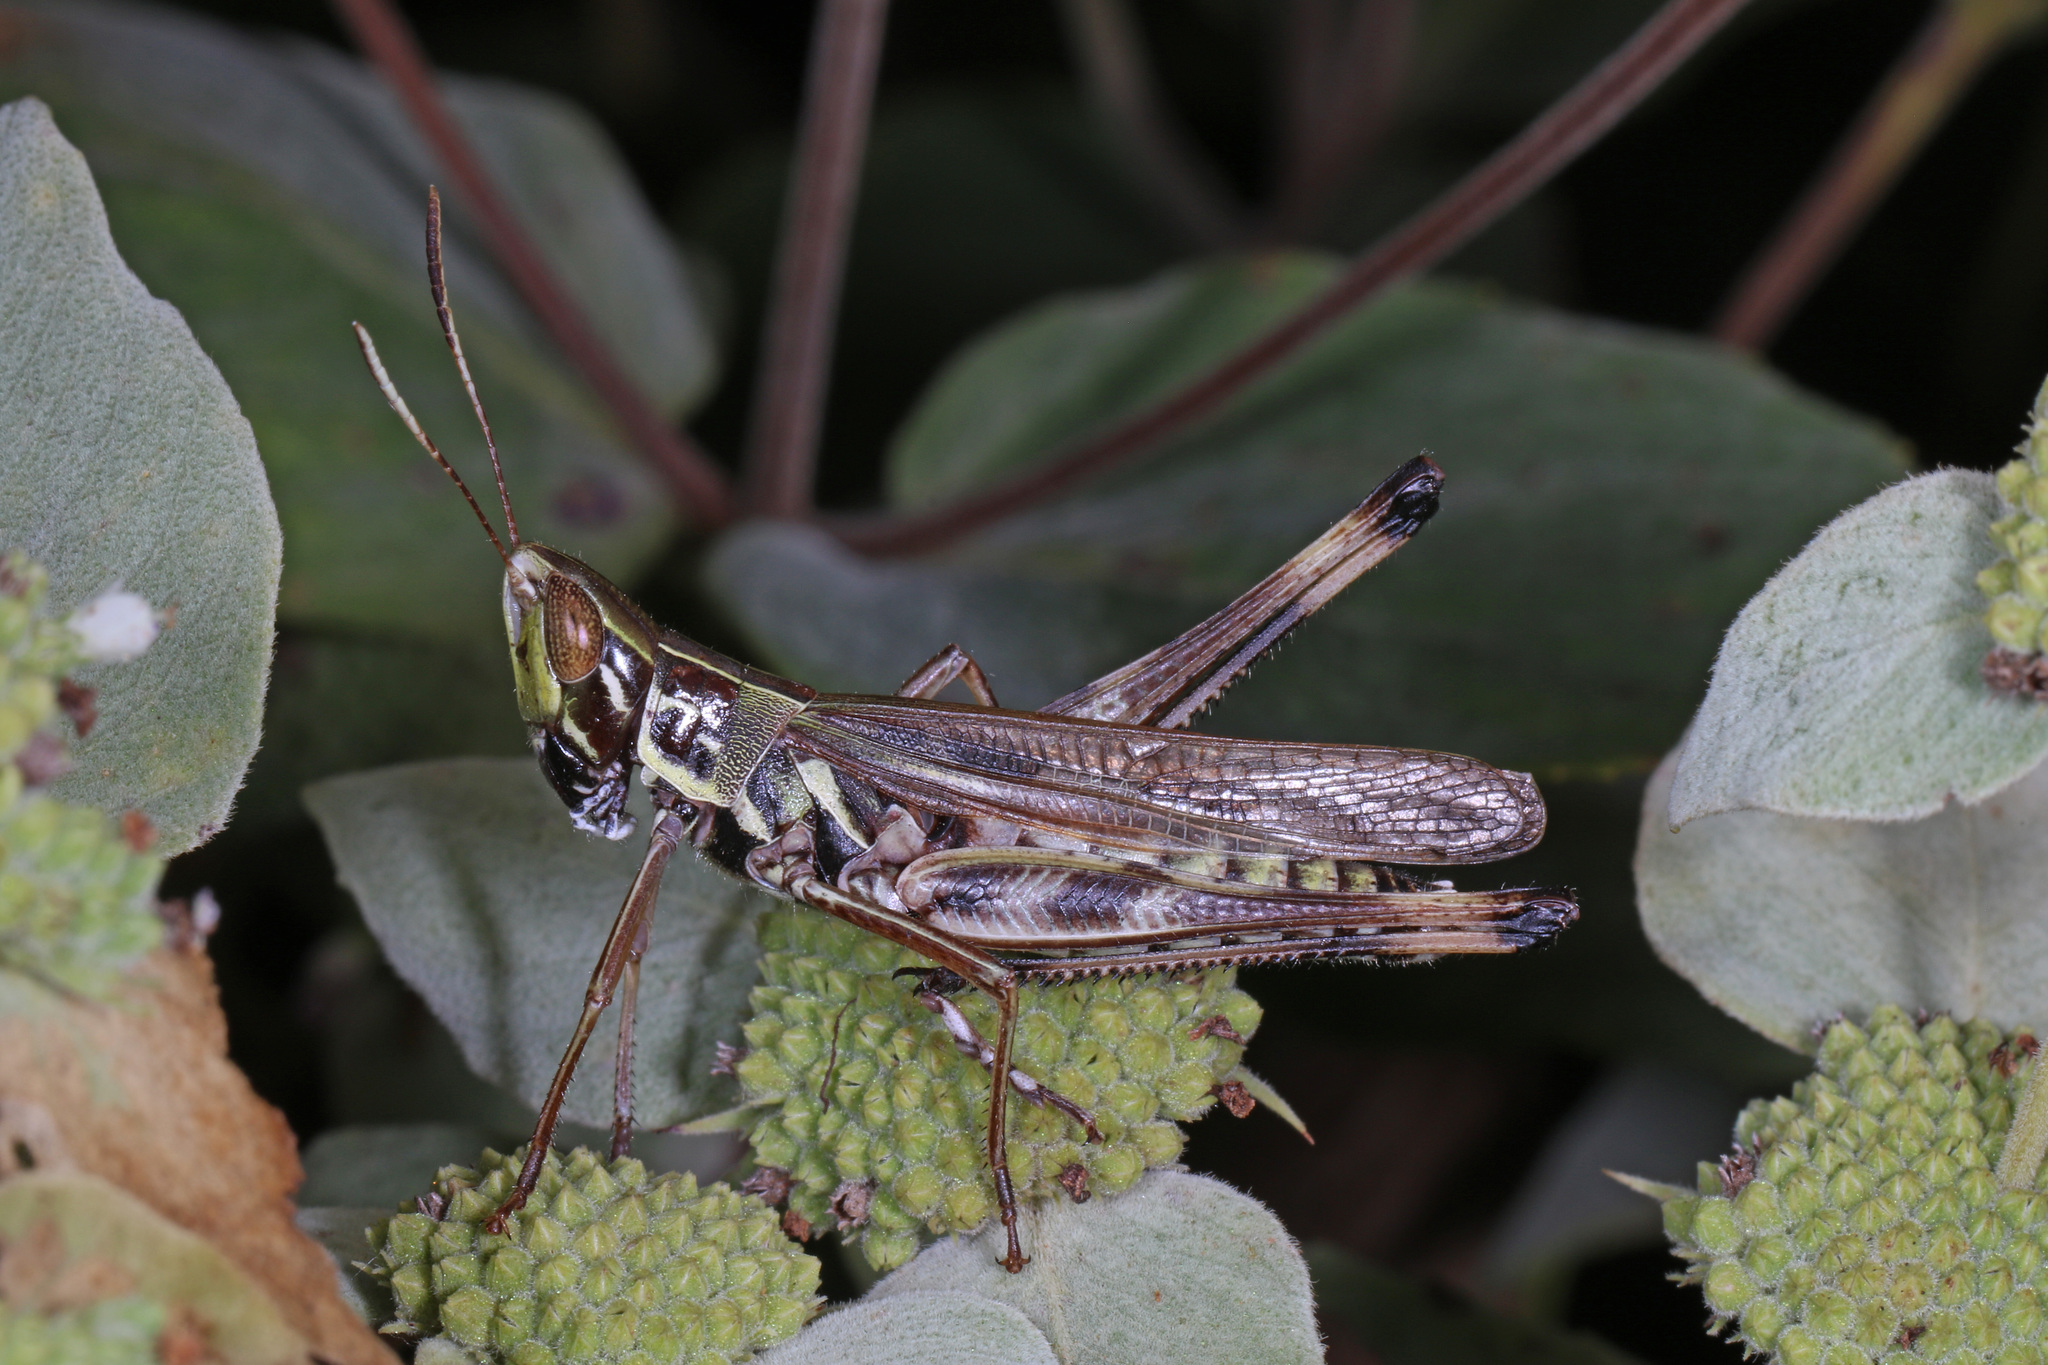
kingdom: Animalia
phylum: Arthropoda
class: Insecta
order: Orthoptera
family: Acrididae
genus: Syrbula
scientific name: Syrbula admirabilis
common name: Handsome grasshopper
